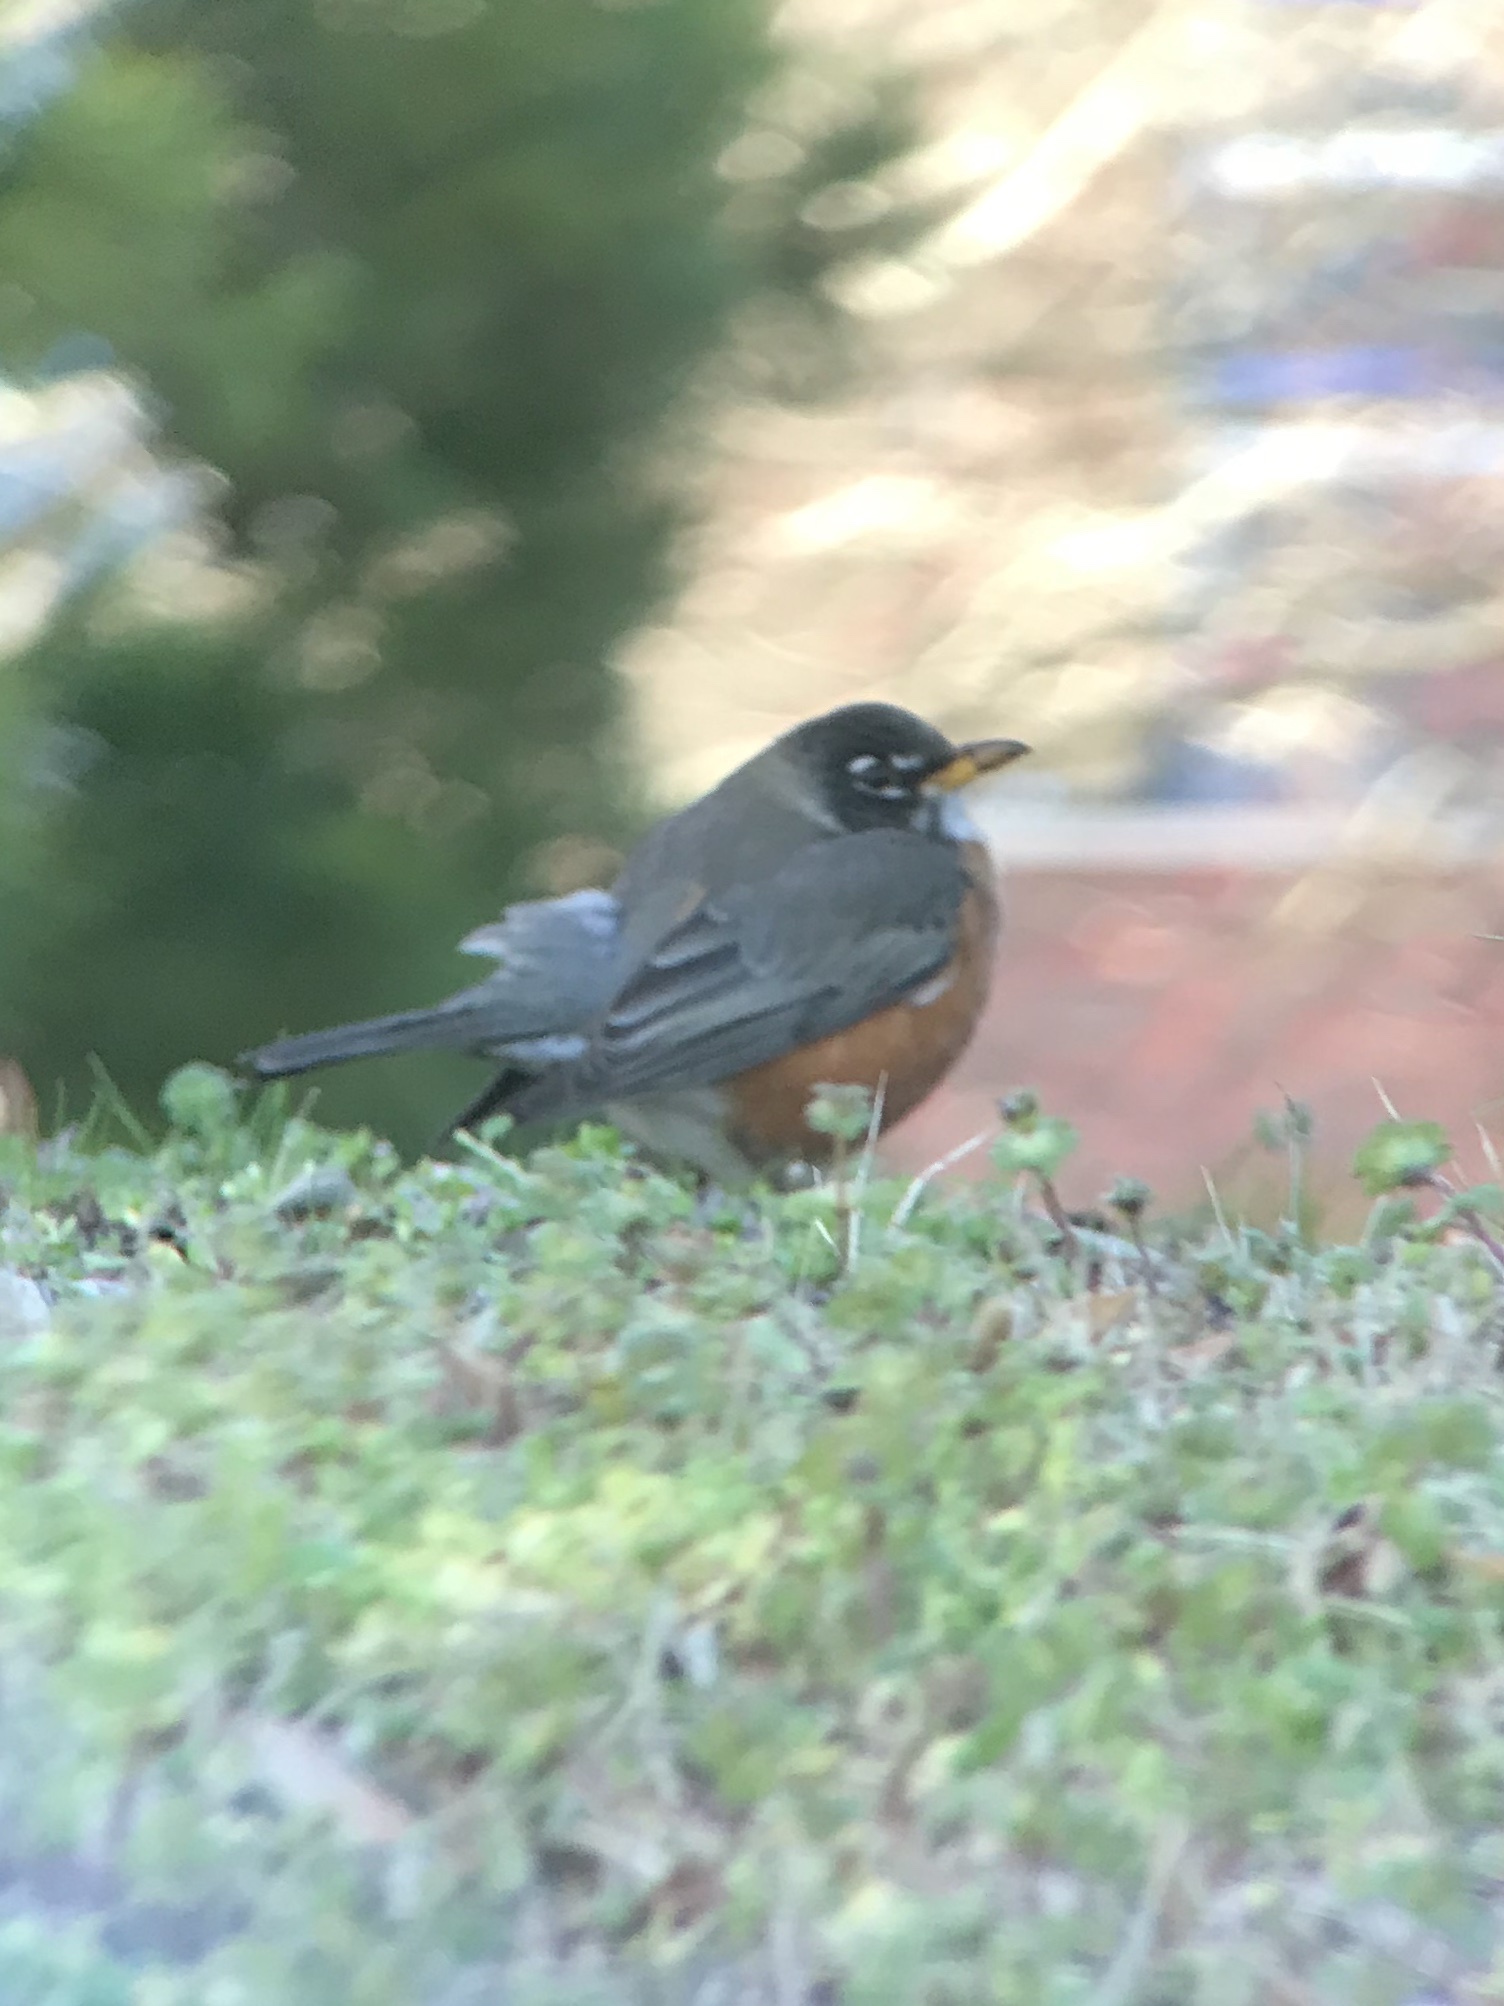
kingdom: Animalia
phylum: Chordata
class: Aves
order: Passeriformes
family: Turdidae
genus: Turdus
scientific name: Turdus migratorius
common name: American robin
